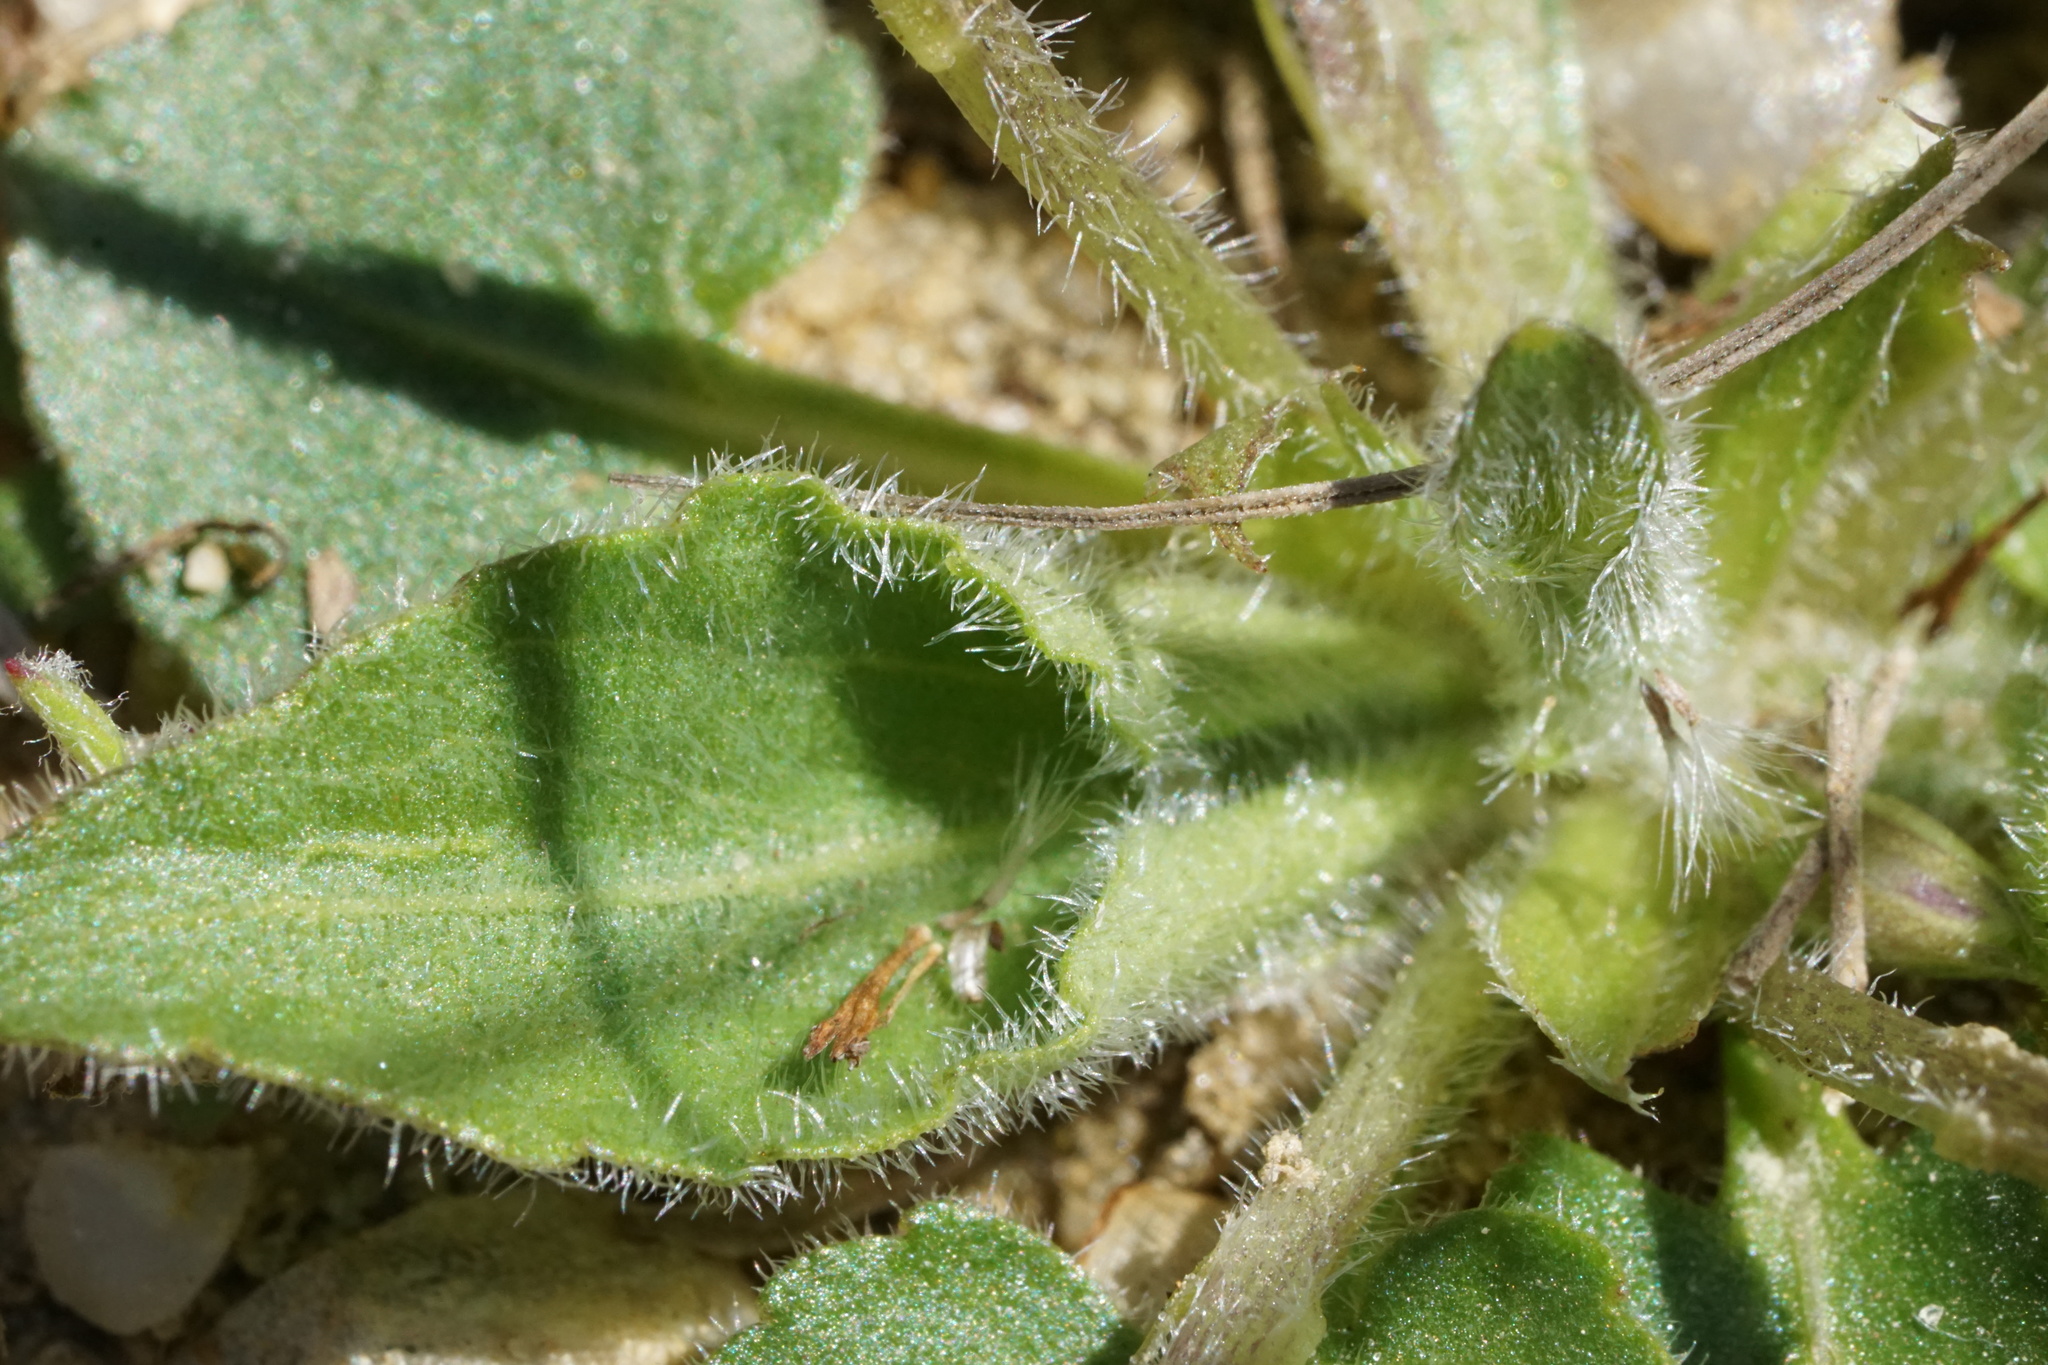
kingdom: Plantae
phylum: Tracheophyta
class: Magnoliopsida
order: Malpighiales
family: Violaceae
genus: Viola
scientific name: Viola fimbriatula
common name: Sand violet
